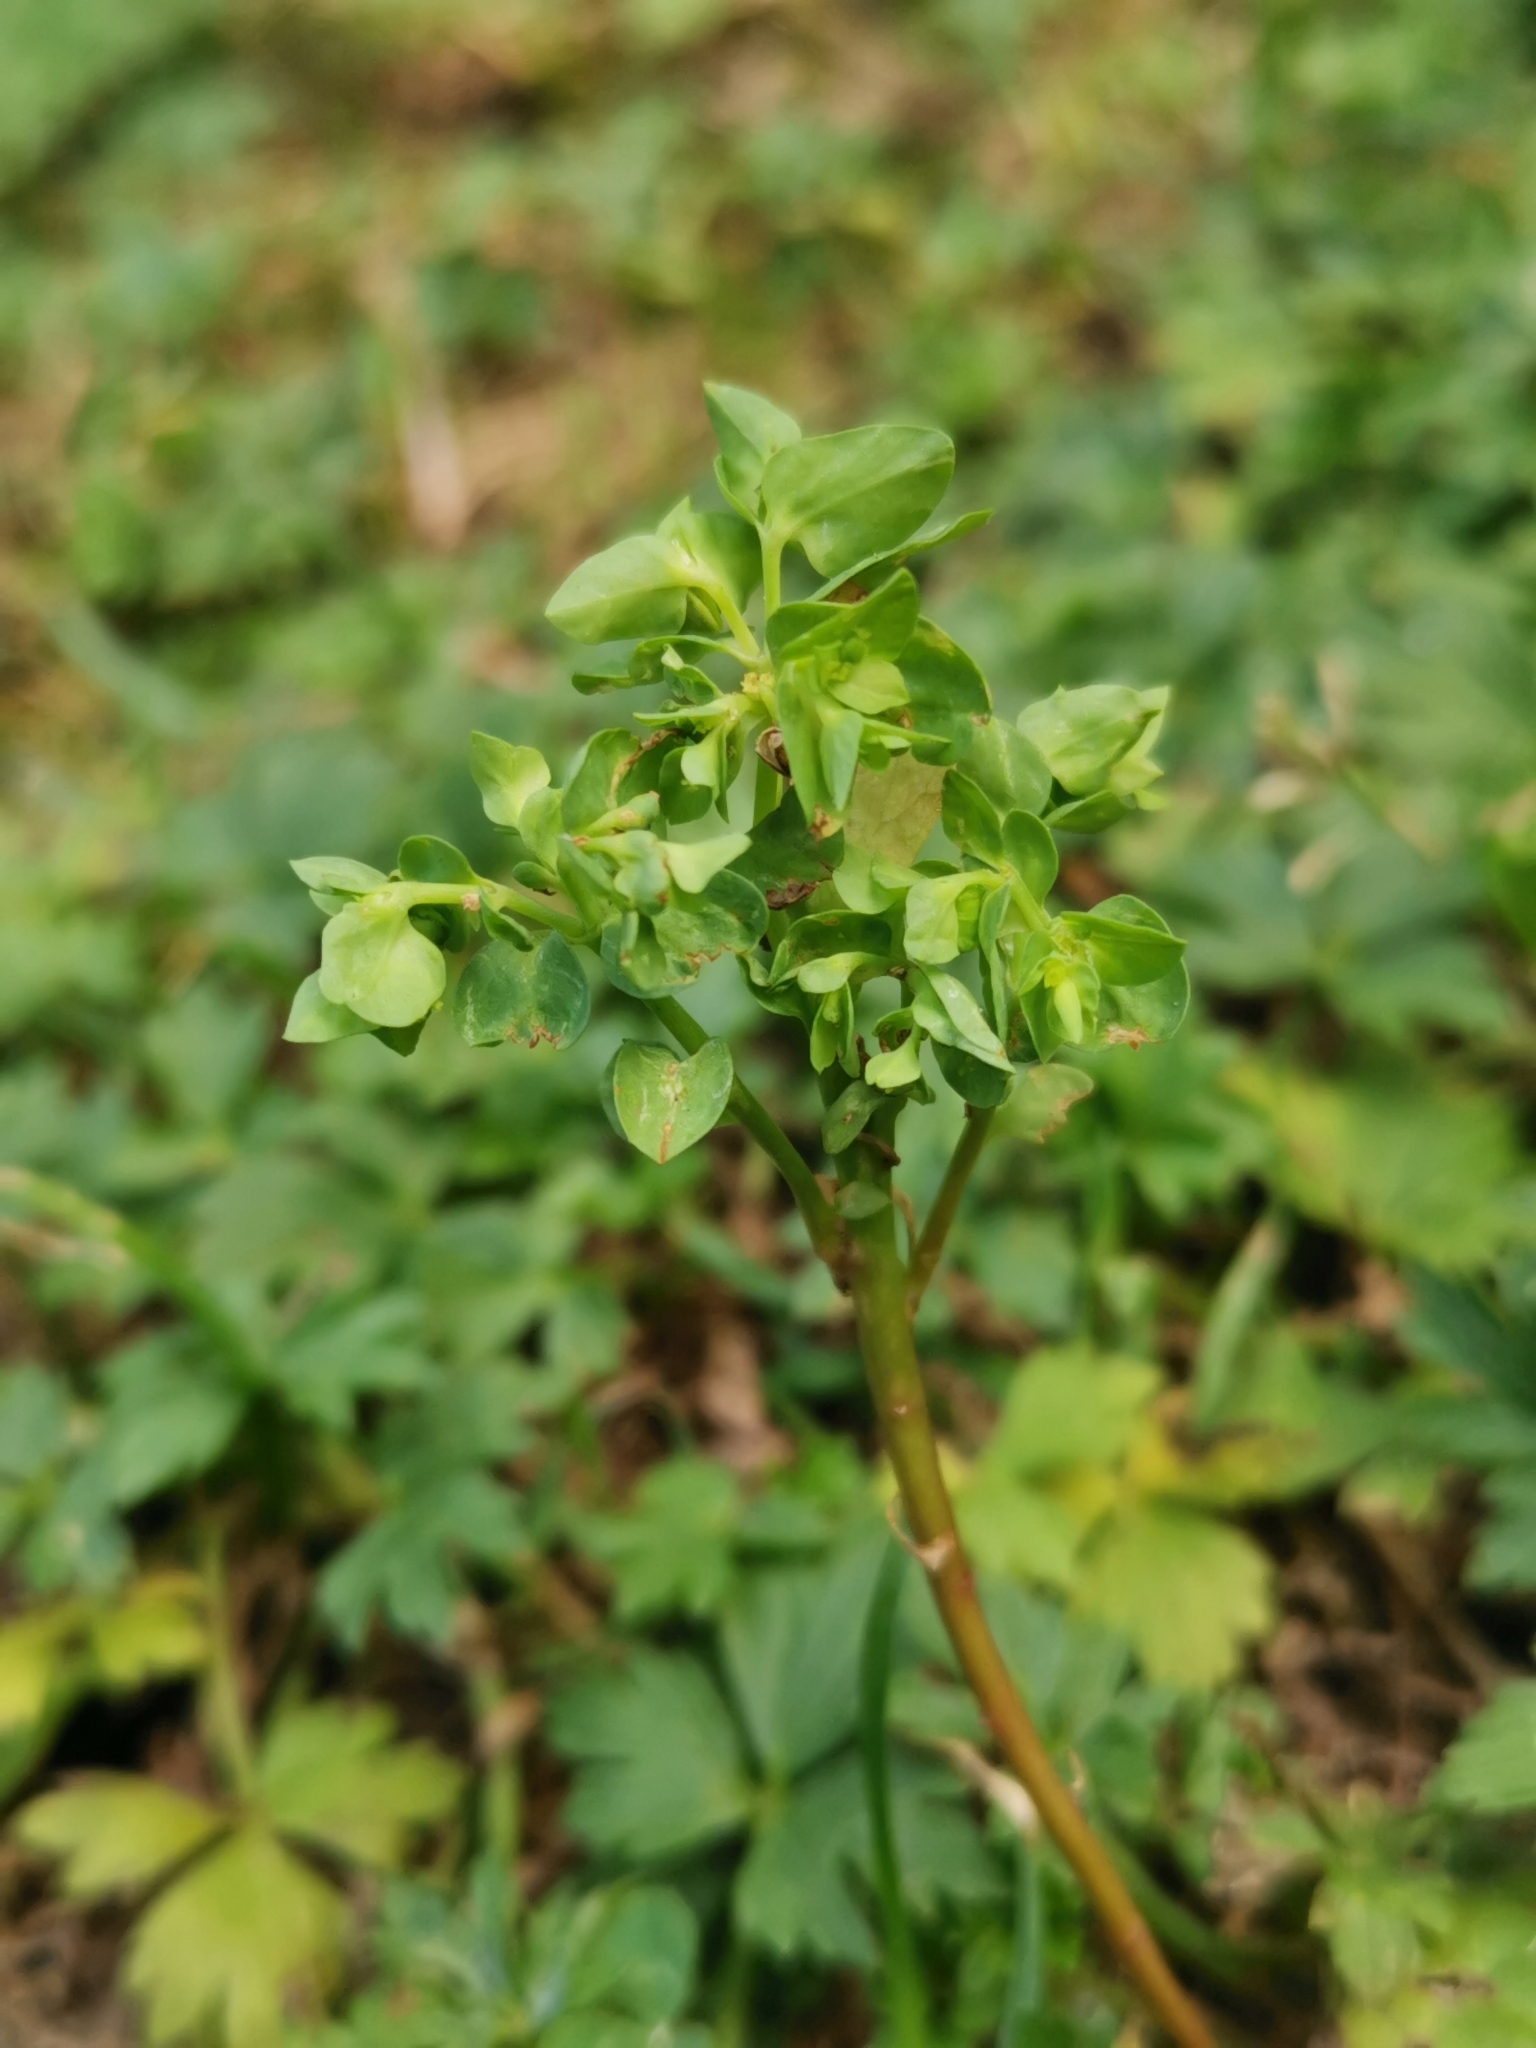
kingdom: Plantae
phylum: Tracheophyta
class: Magnoliopsida
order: Malpighiales
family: Euphorbiaceae
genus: Euphorbia
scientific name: Euphorbia peplus
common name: Petty spurge
